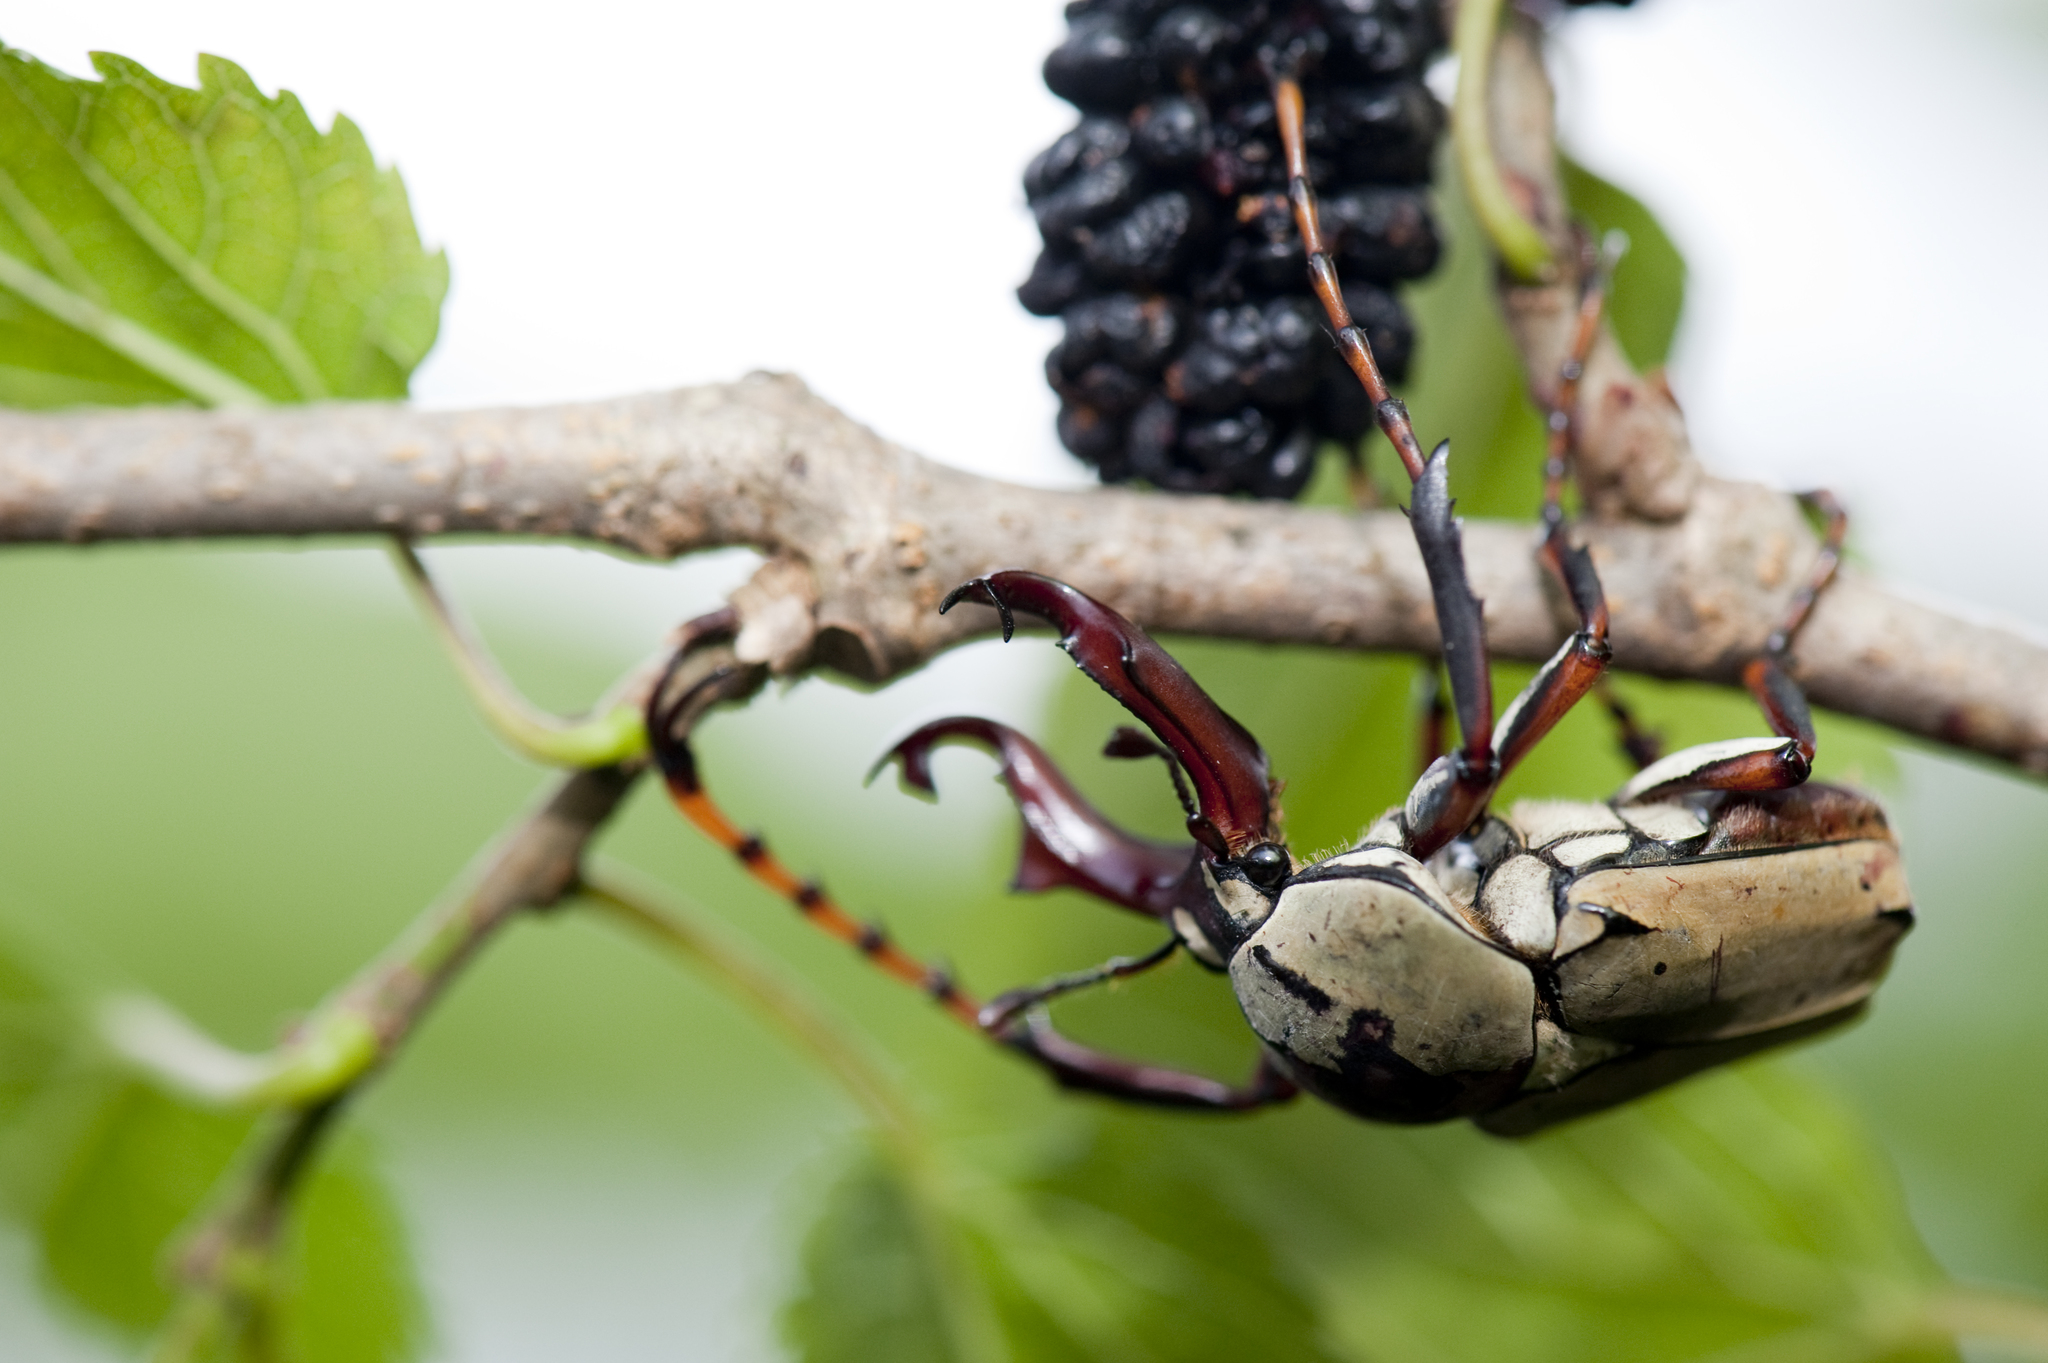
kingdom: Animalia
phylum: Arthropoda
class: Insecta
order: Coleoptera
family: Scarabaeidae
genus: Dicronocephalus
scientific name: Dicronocephalus bourgoini
